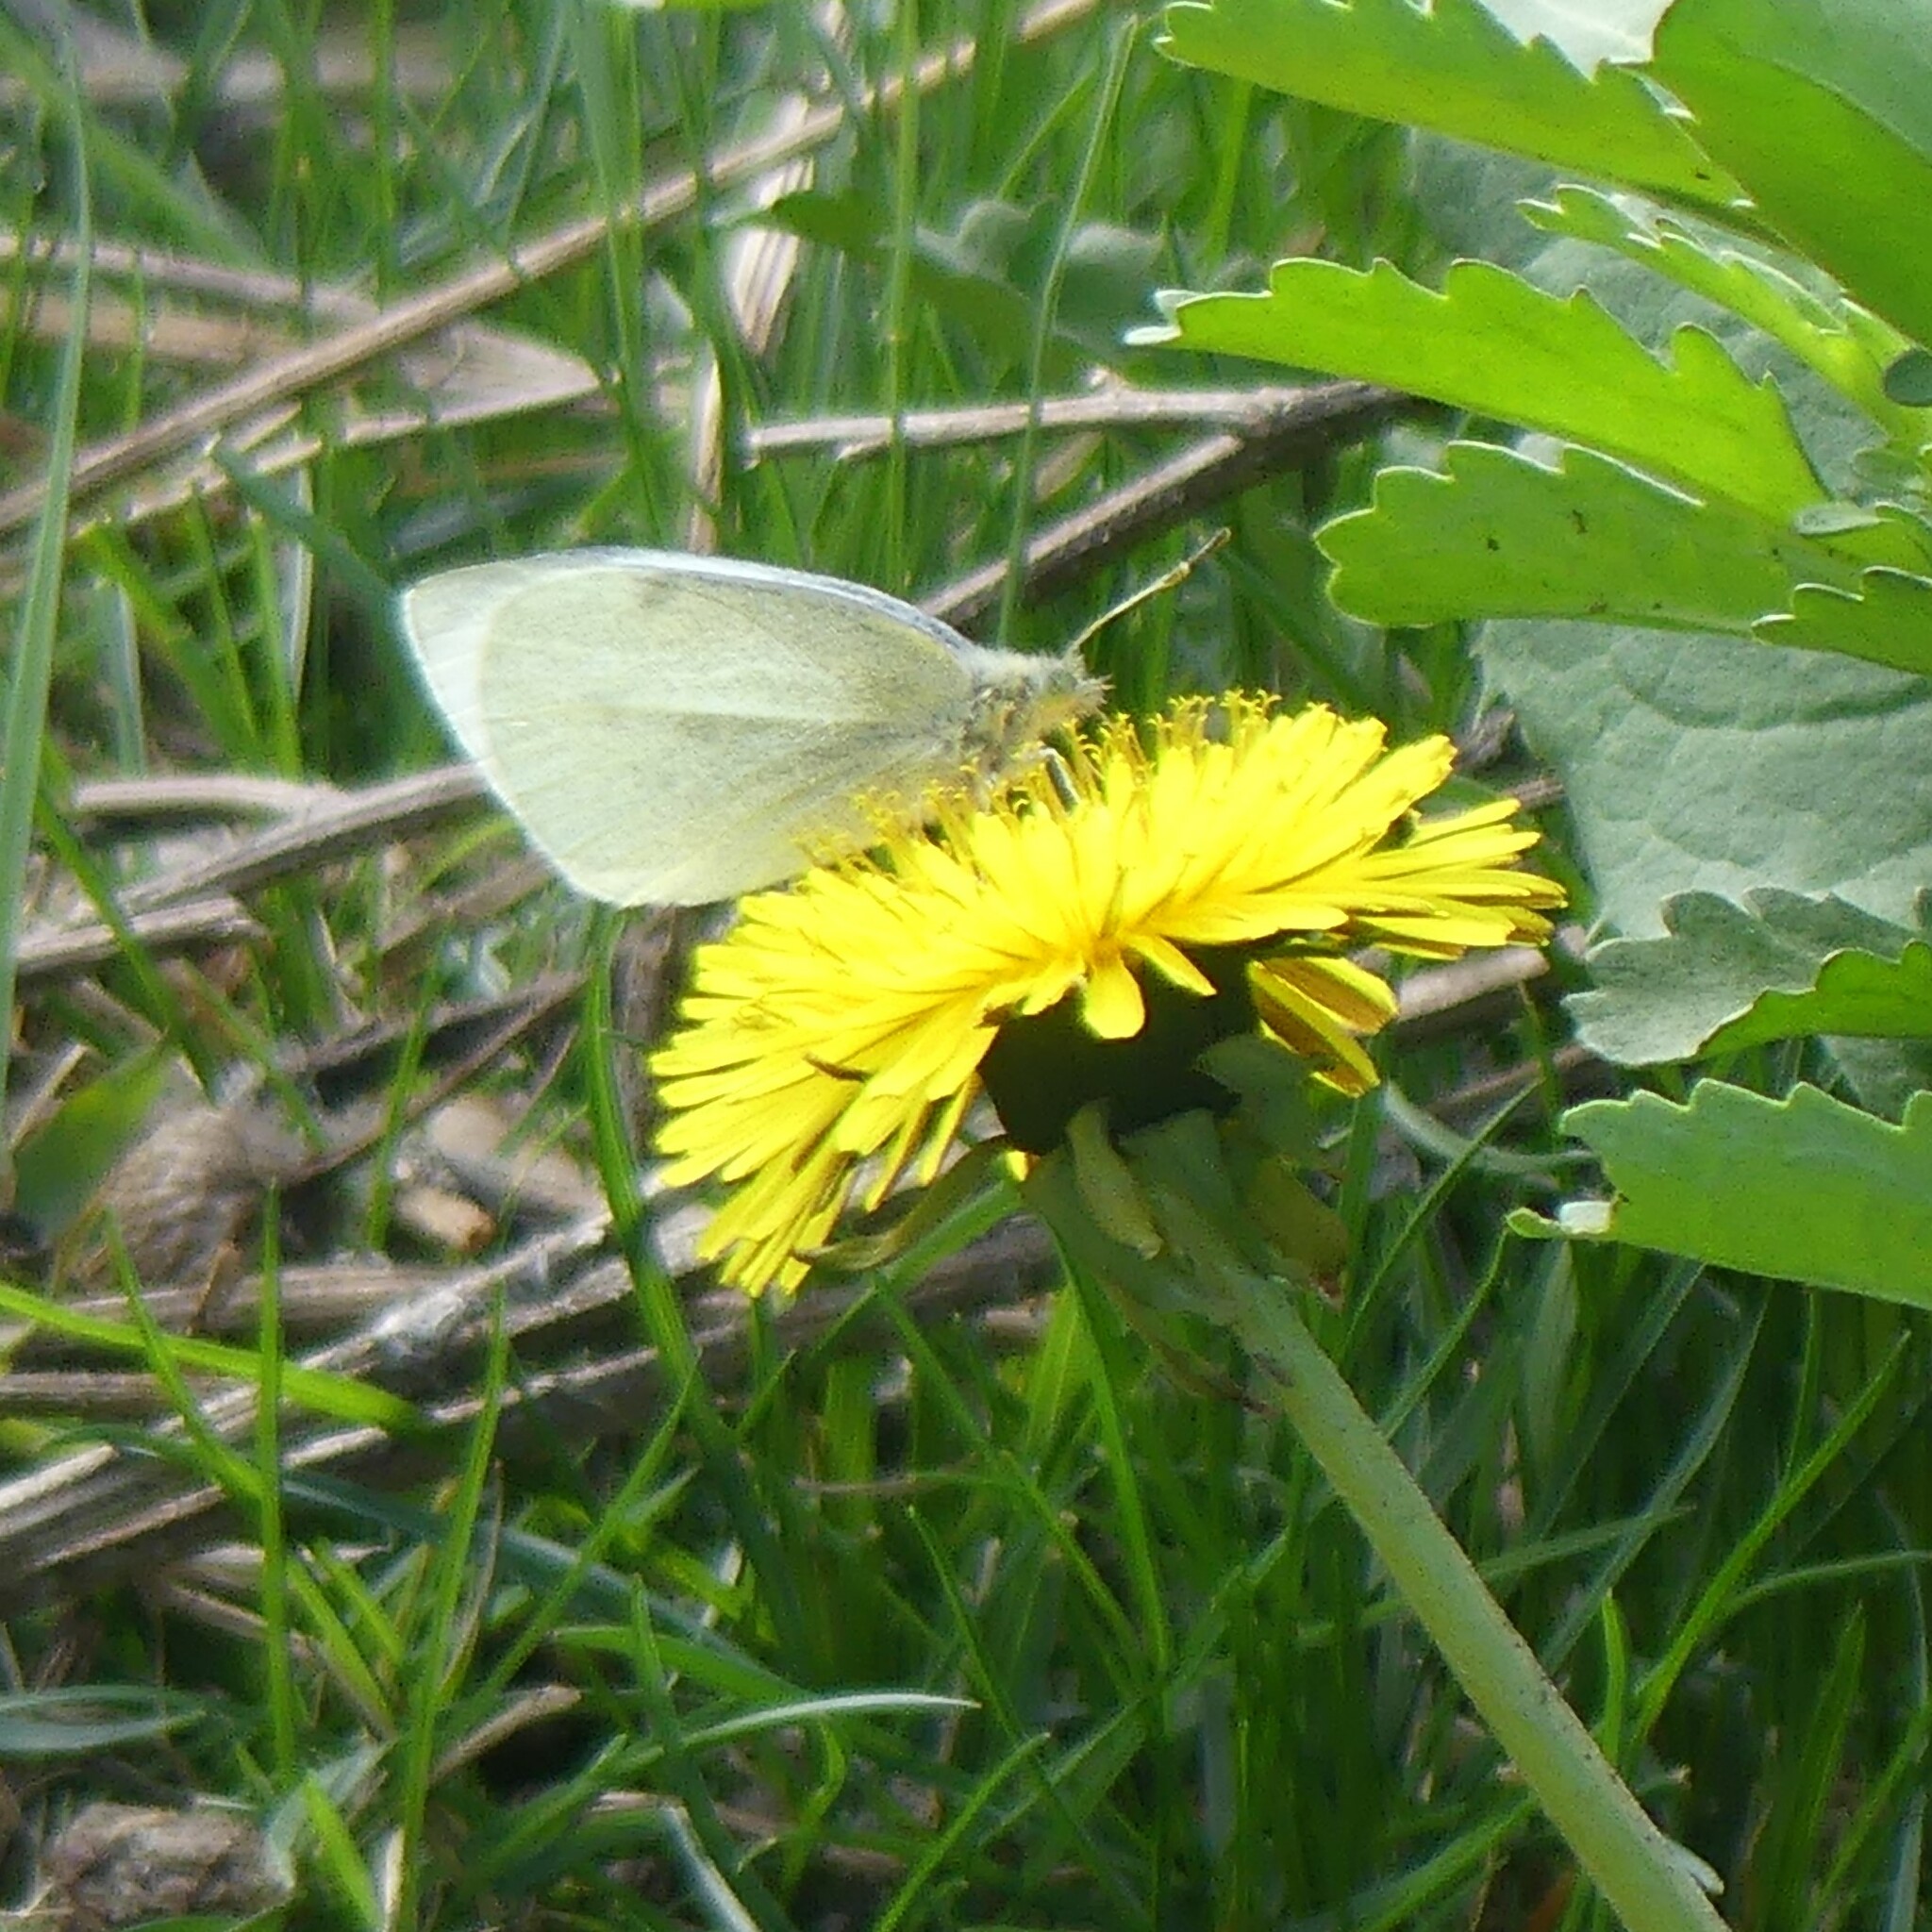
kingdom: Animalia
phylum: Arthropoda
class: Insecta
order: Lepidoptera
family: Pieridae
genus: Pieris
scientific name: Pieris rapae
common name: Small white
